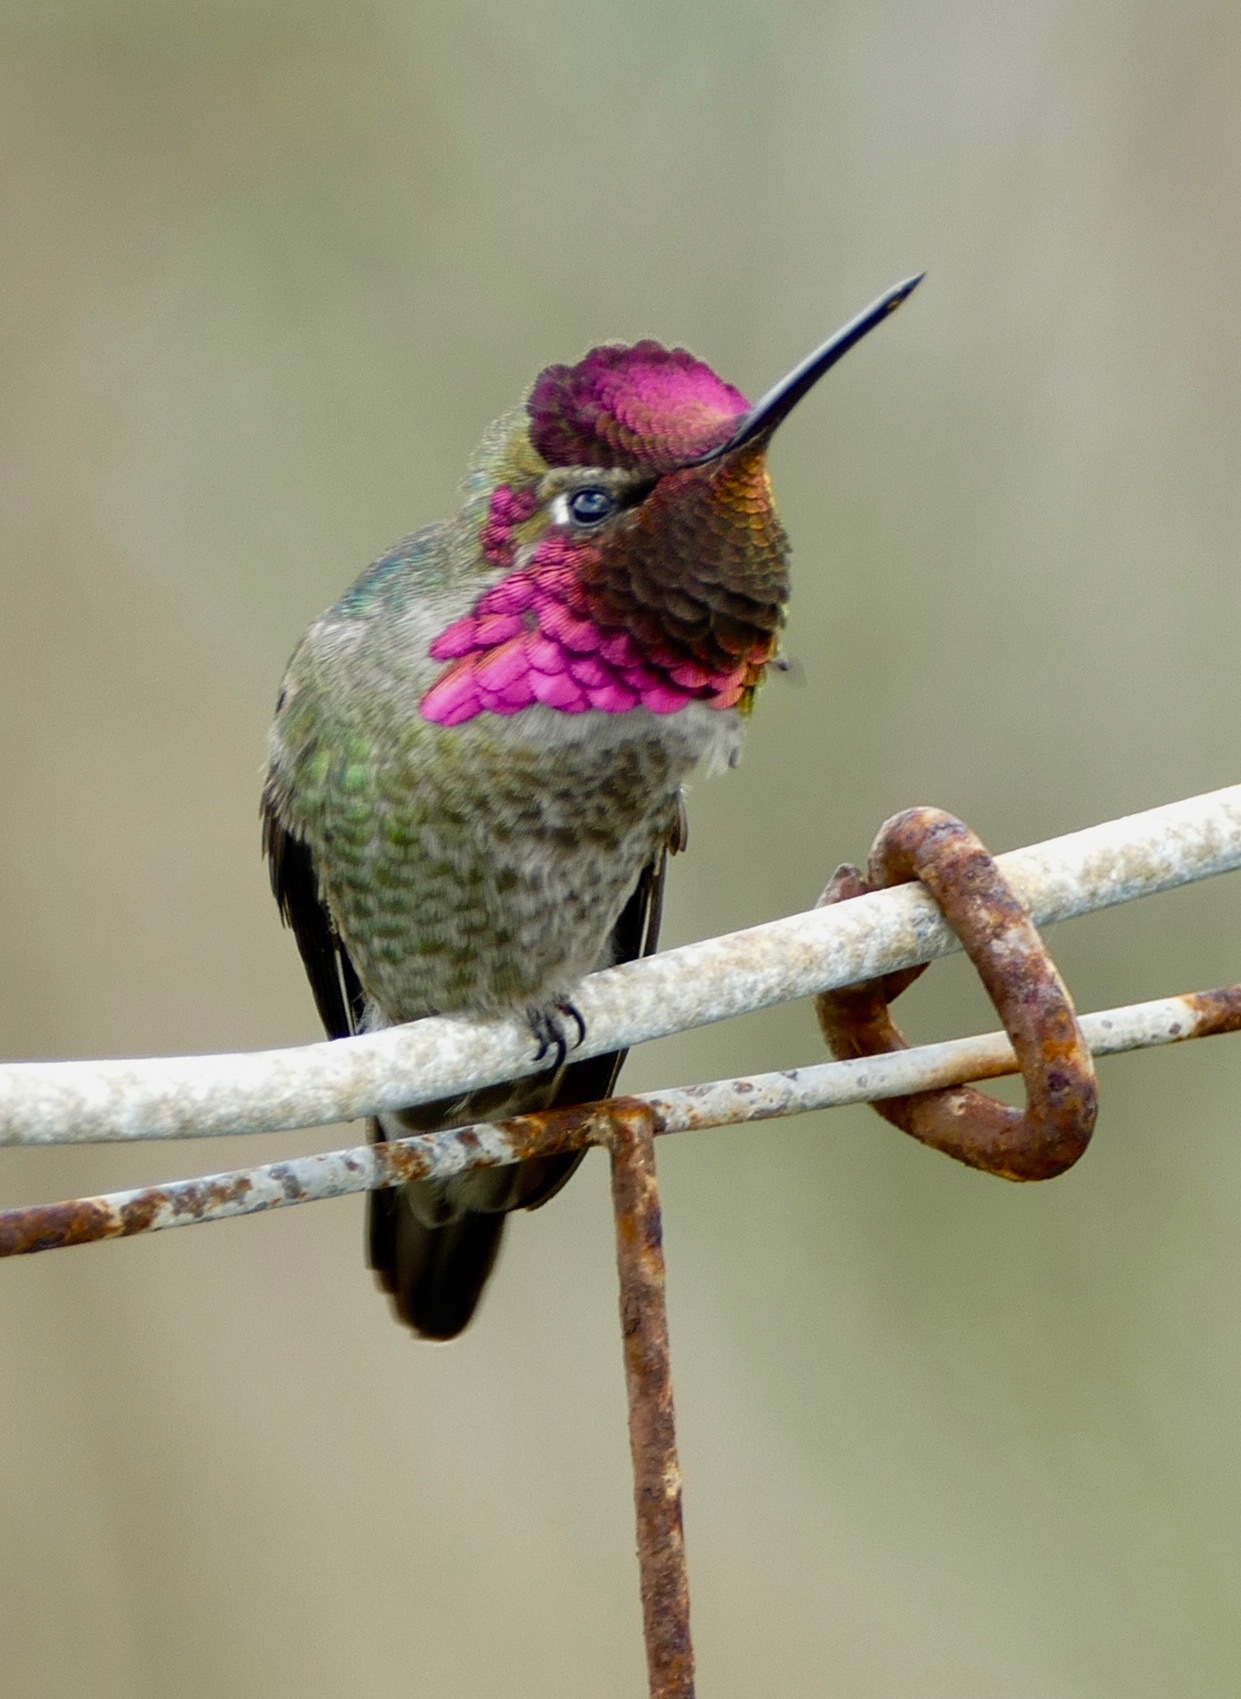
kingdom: Animalia
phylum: Chordata
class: Aves
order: Apodiformes
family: Trochilidae
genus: Calypte
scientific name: Calypte anna
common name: Anna's hummingbird
